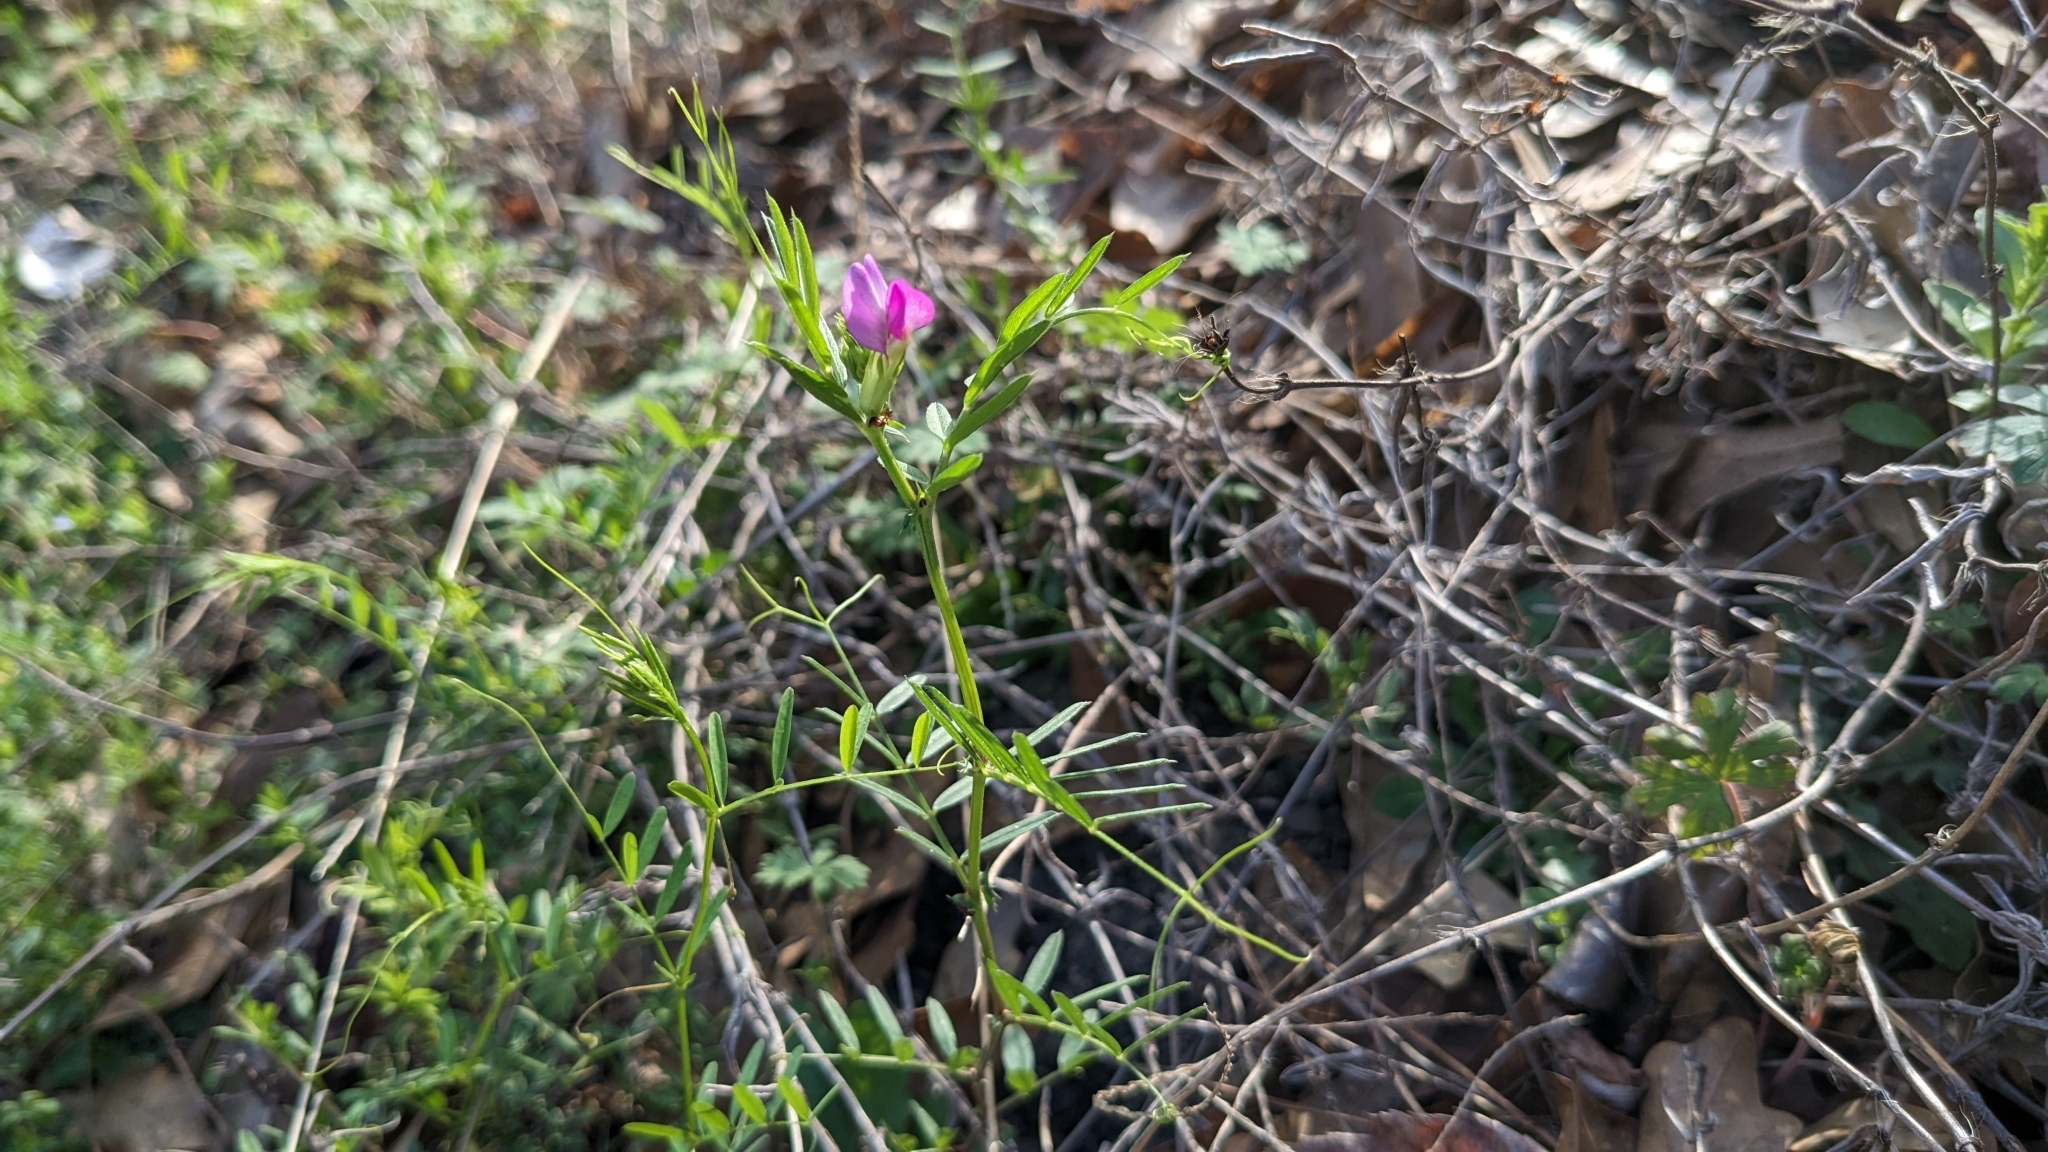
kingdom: Plantae
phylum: Tracheophyta
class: Magnoliopsida
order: Fabales
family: Fabaceae
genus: Vicia
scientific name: Vicia sativa
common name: Garden vetch
